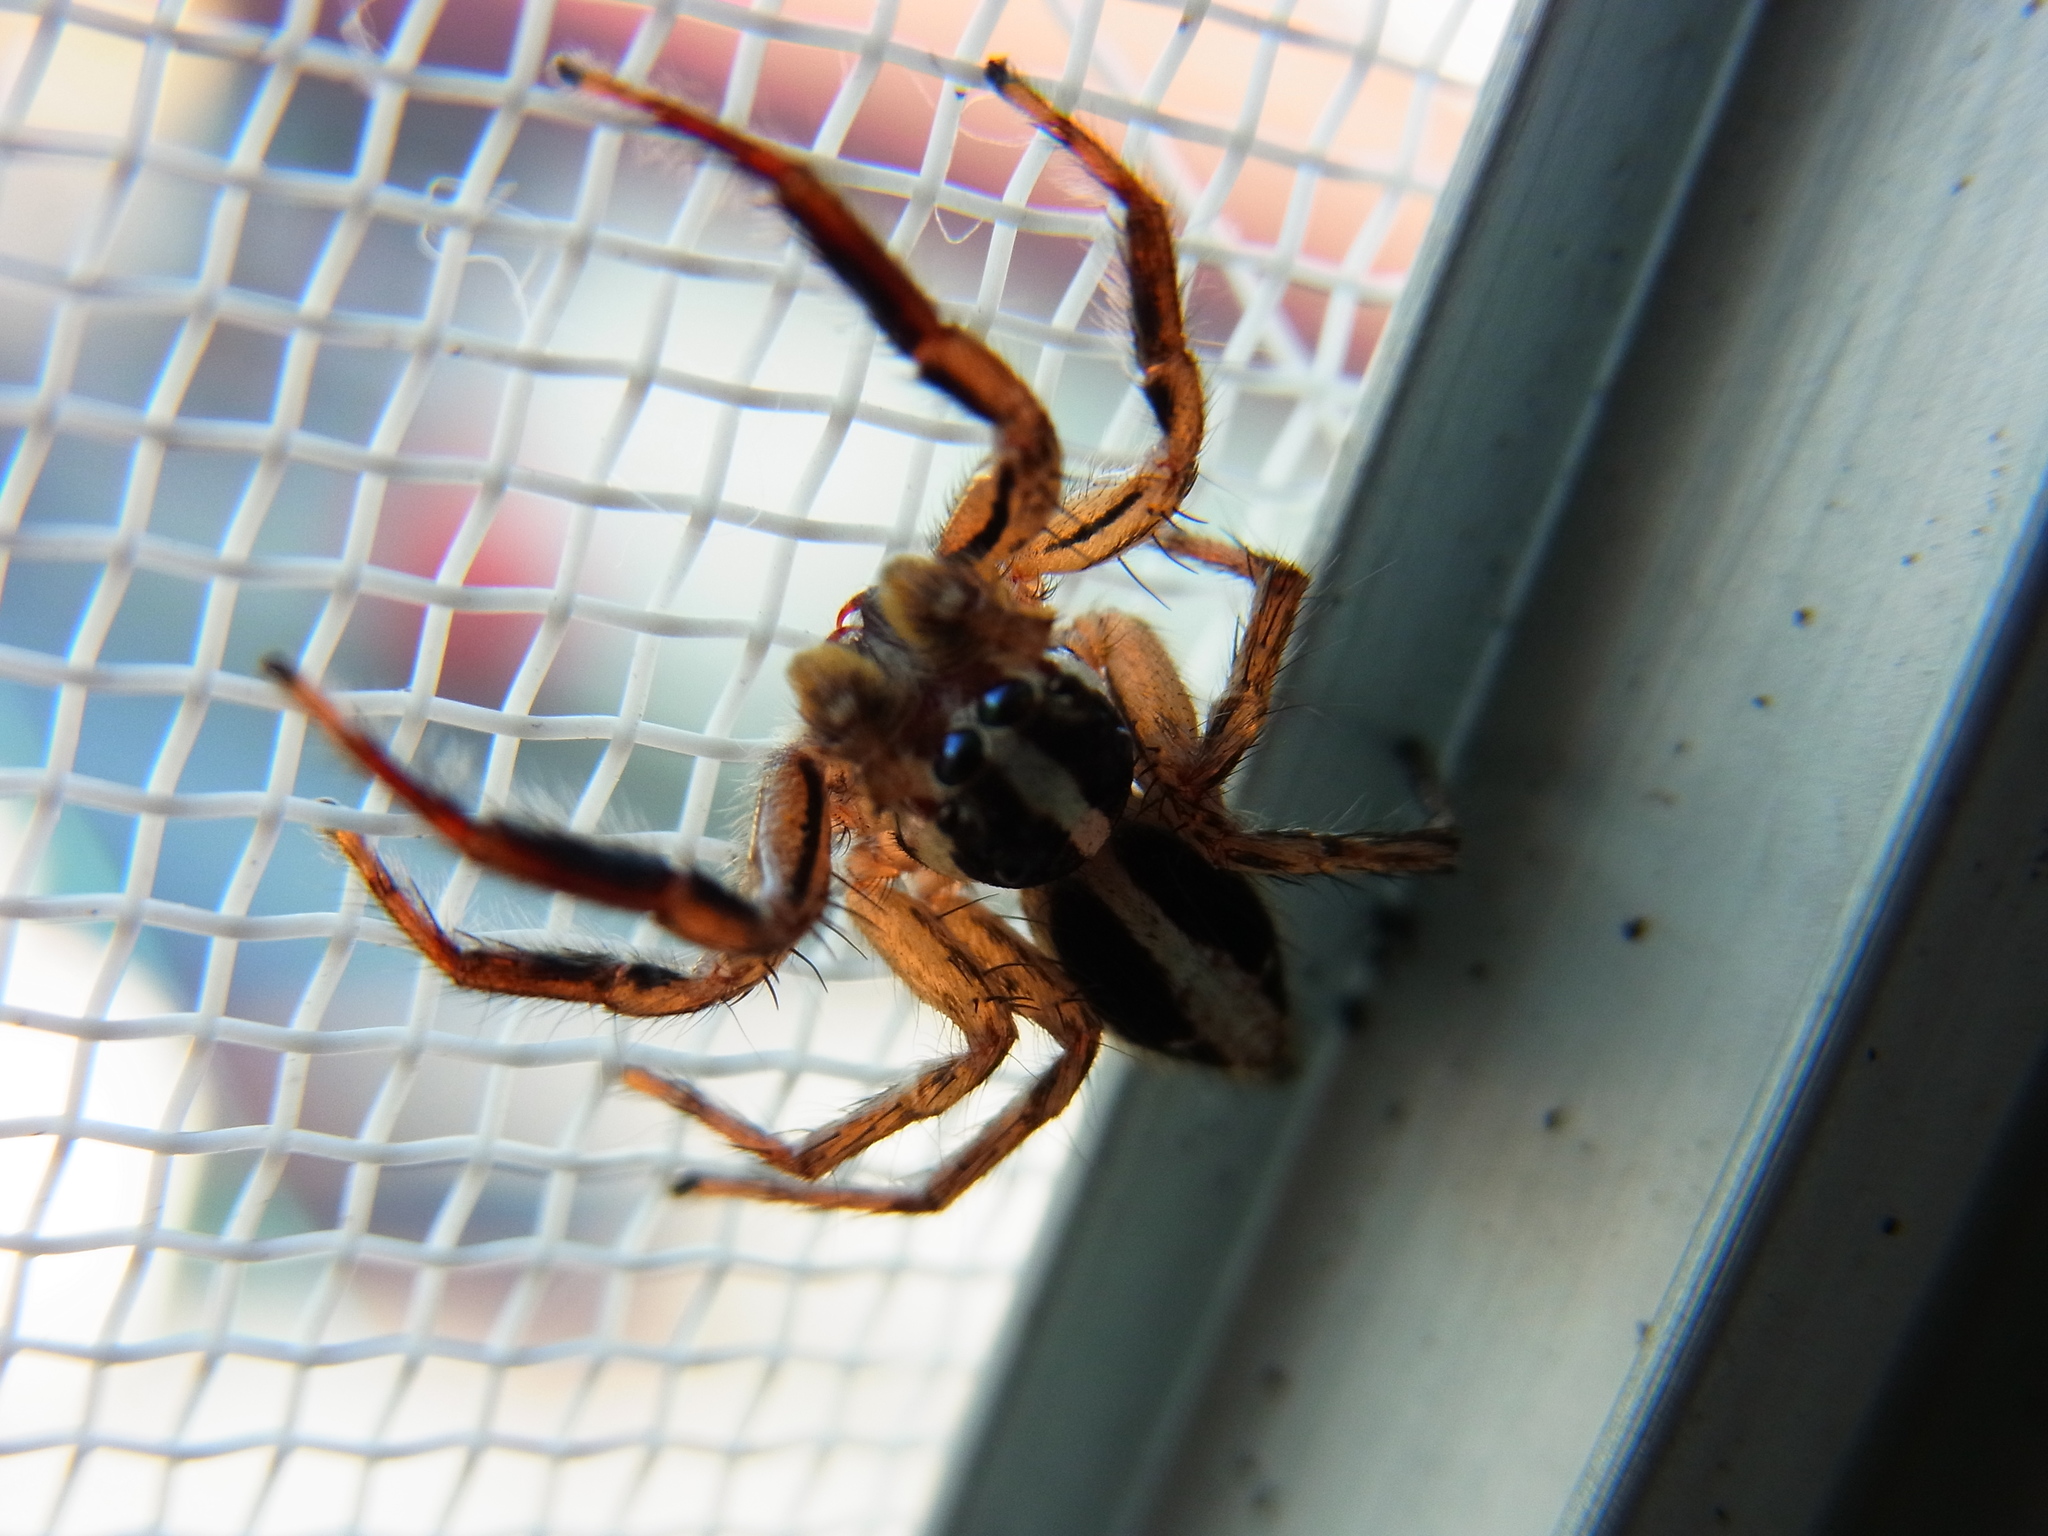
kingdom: Animalia
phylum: Arthropoda
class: Arachnida
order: Araneae
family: Salticidae
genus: Plexippus
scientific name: Plexippus paykulli
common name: Pantropical jumper
